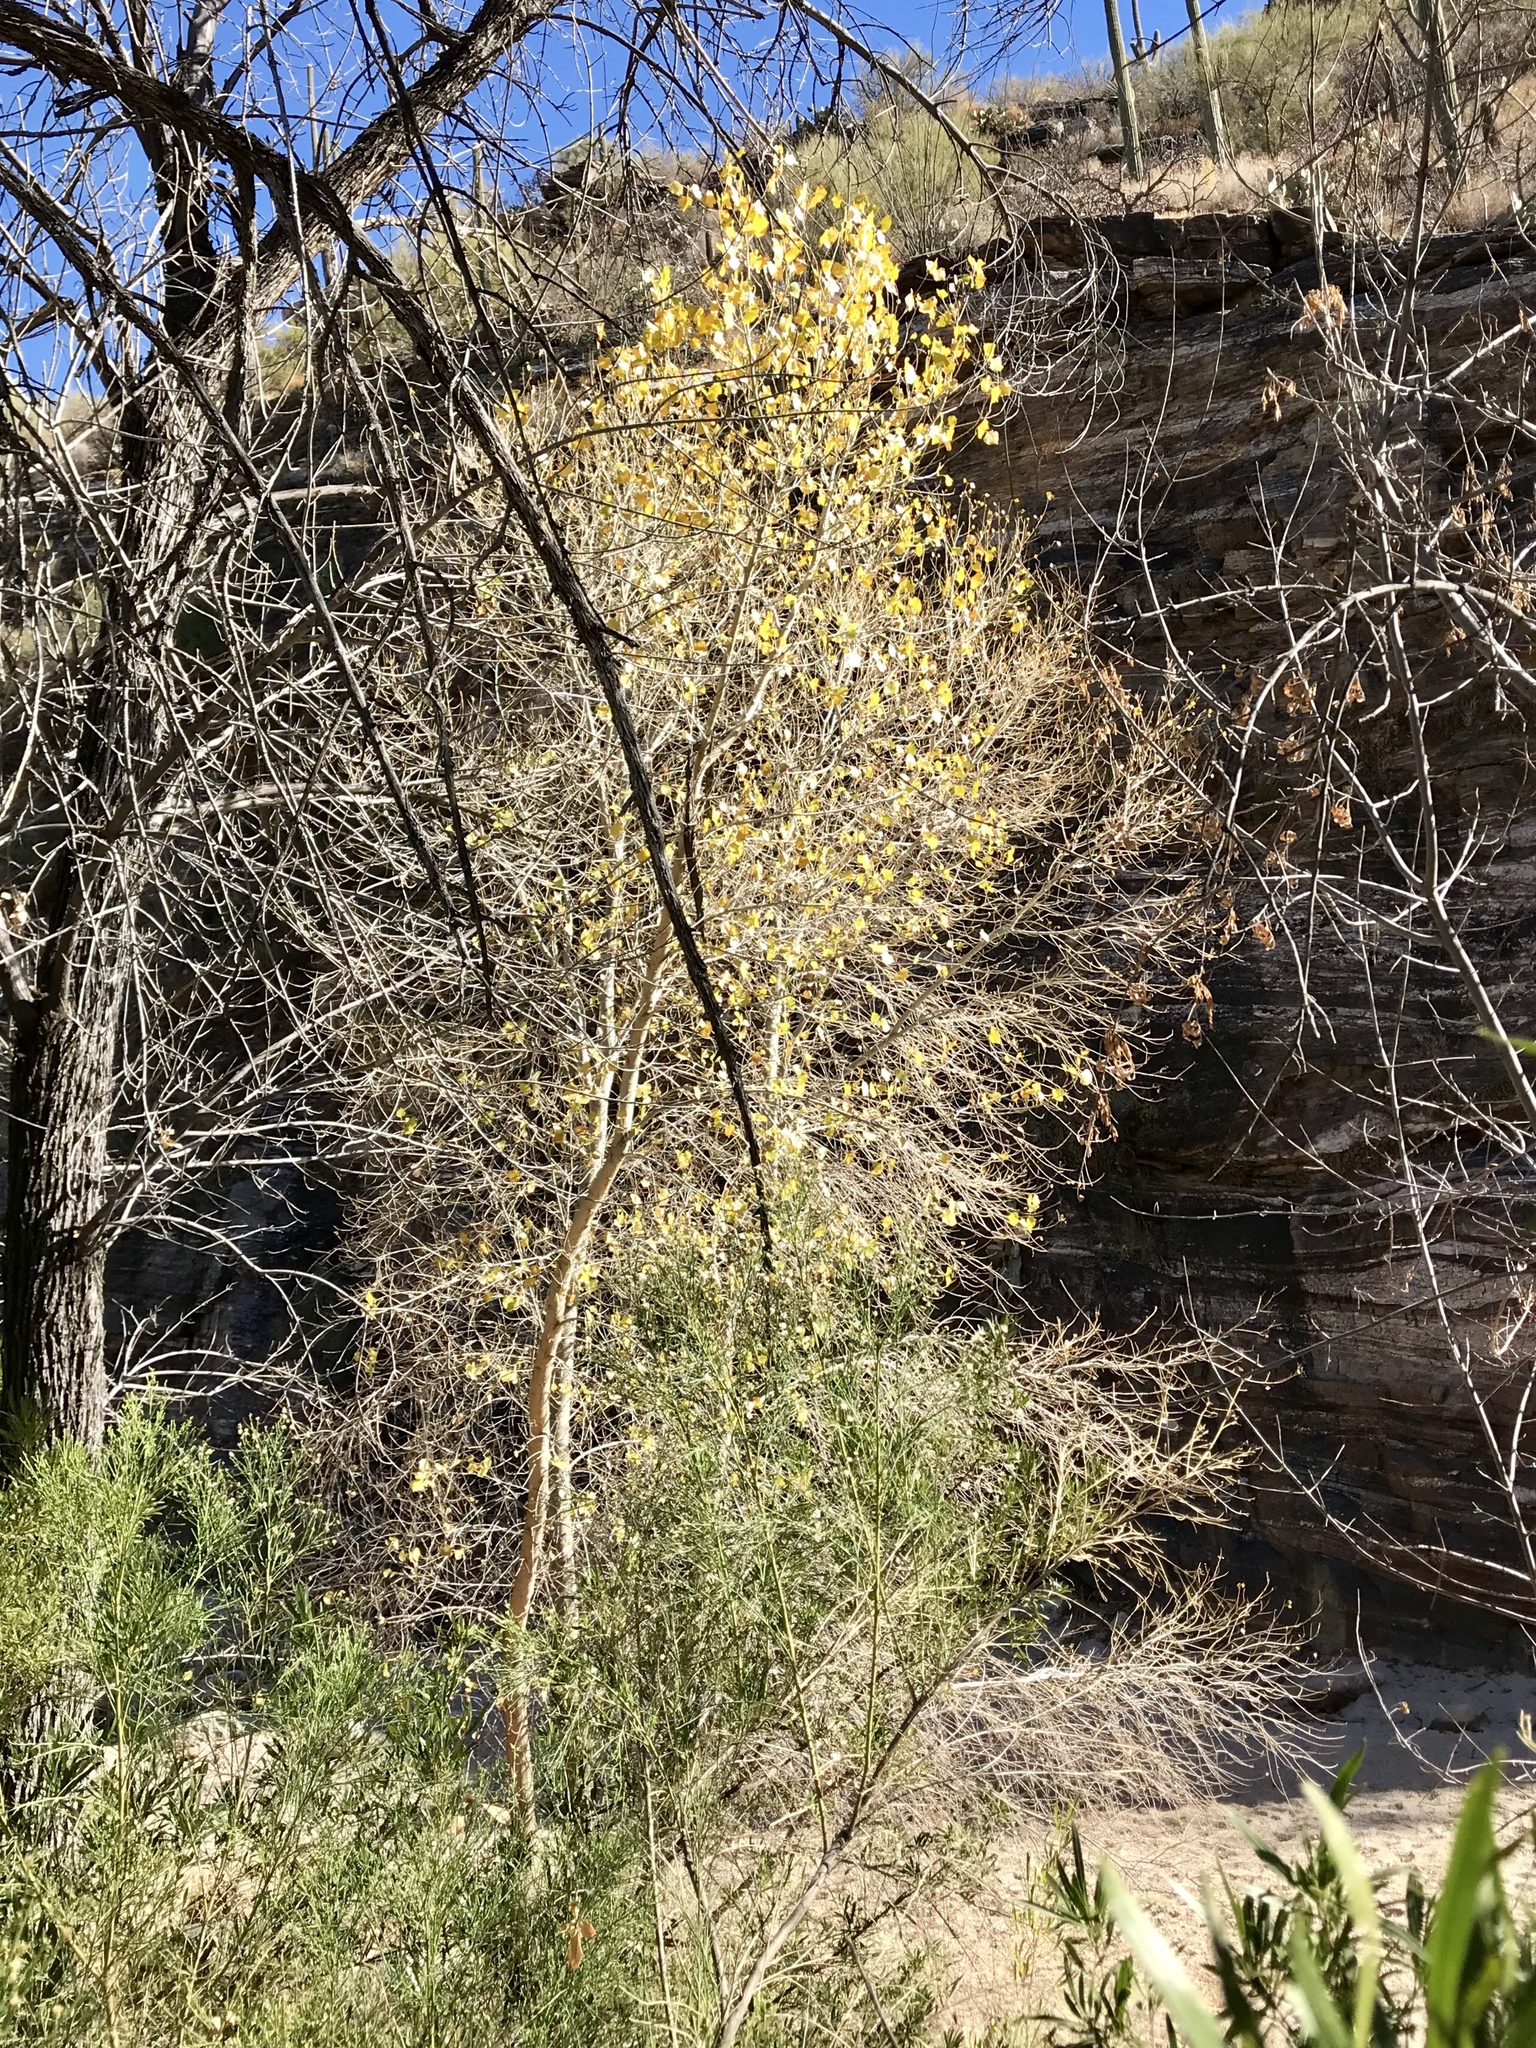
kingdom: Plantae
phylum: Tracheophyta
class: Magnoliopsida
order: Malpighiales
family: Salicaceae
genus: Populus
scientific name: Populus fremontii
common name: Fremont's cottonwood
